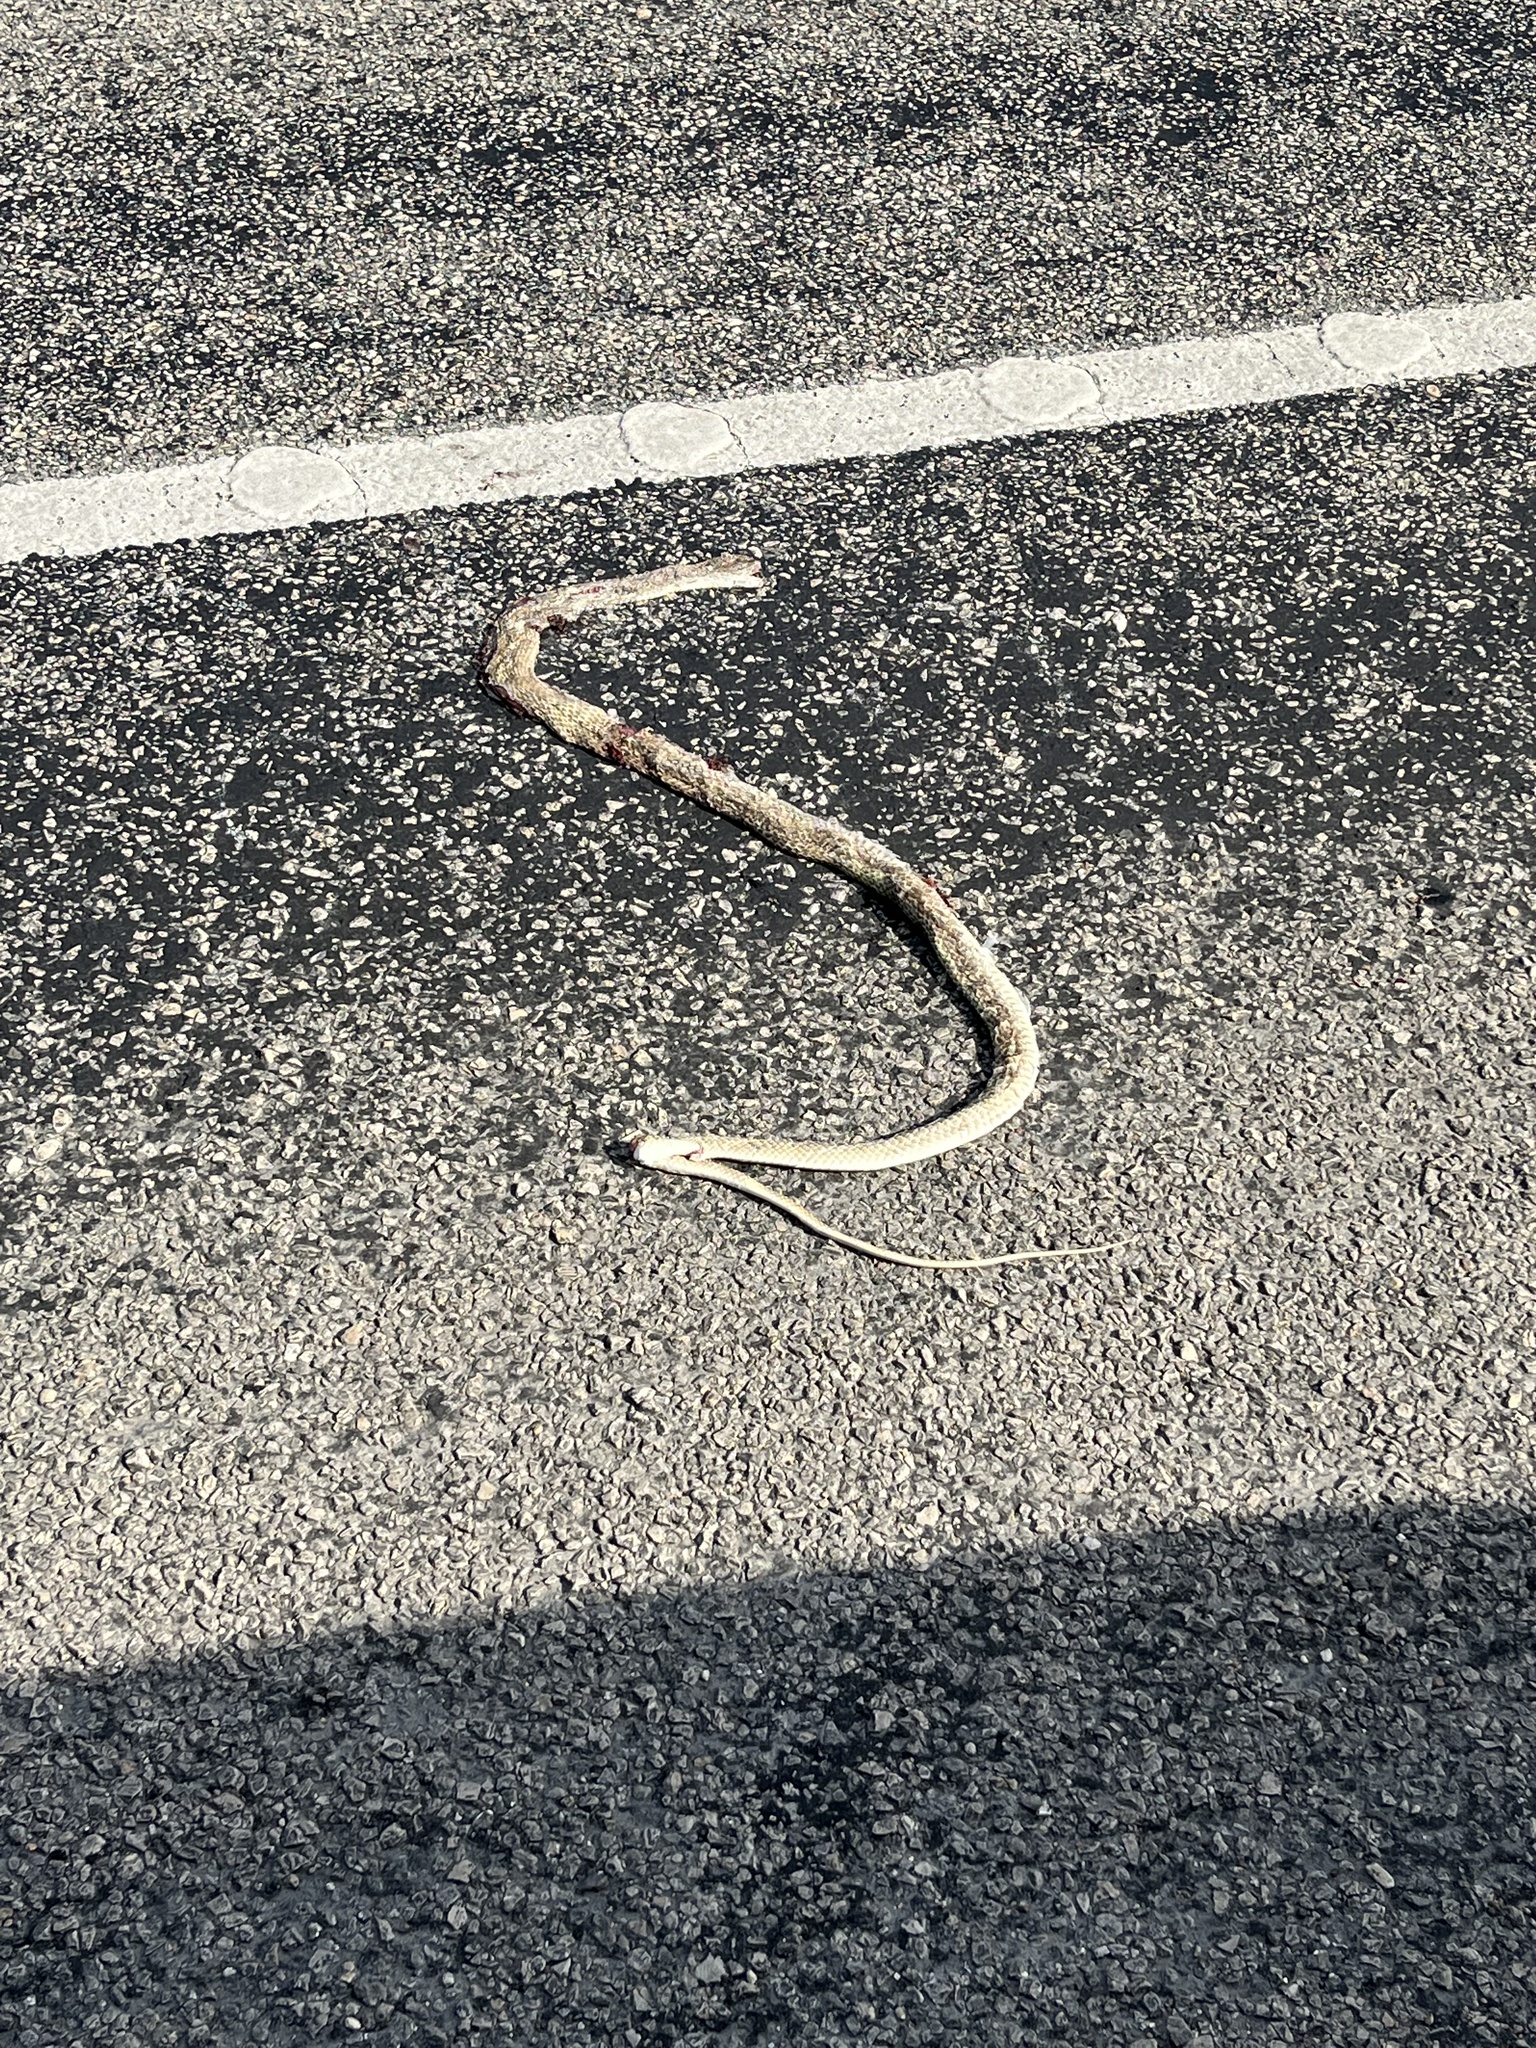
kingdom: Animalia
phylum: Chordata
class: Squamata
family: Colubridae
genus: Masticophis
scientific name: Masticophis flagellum
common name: Coachwhip
